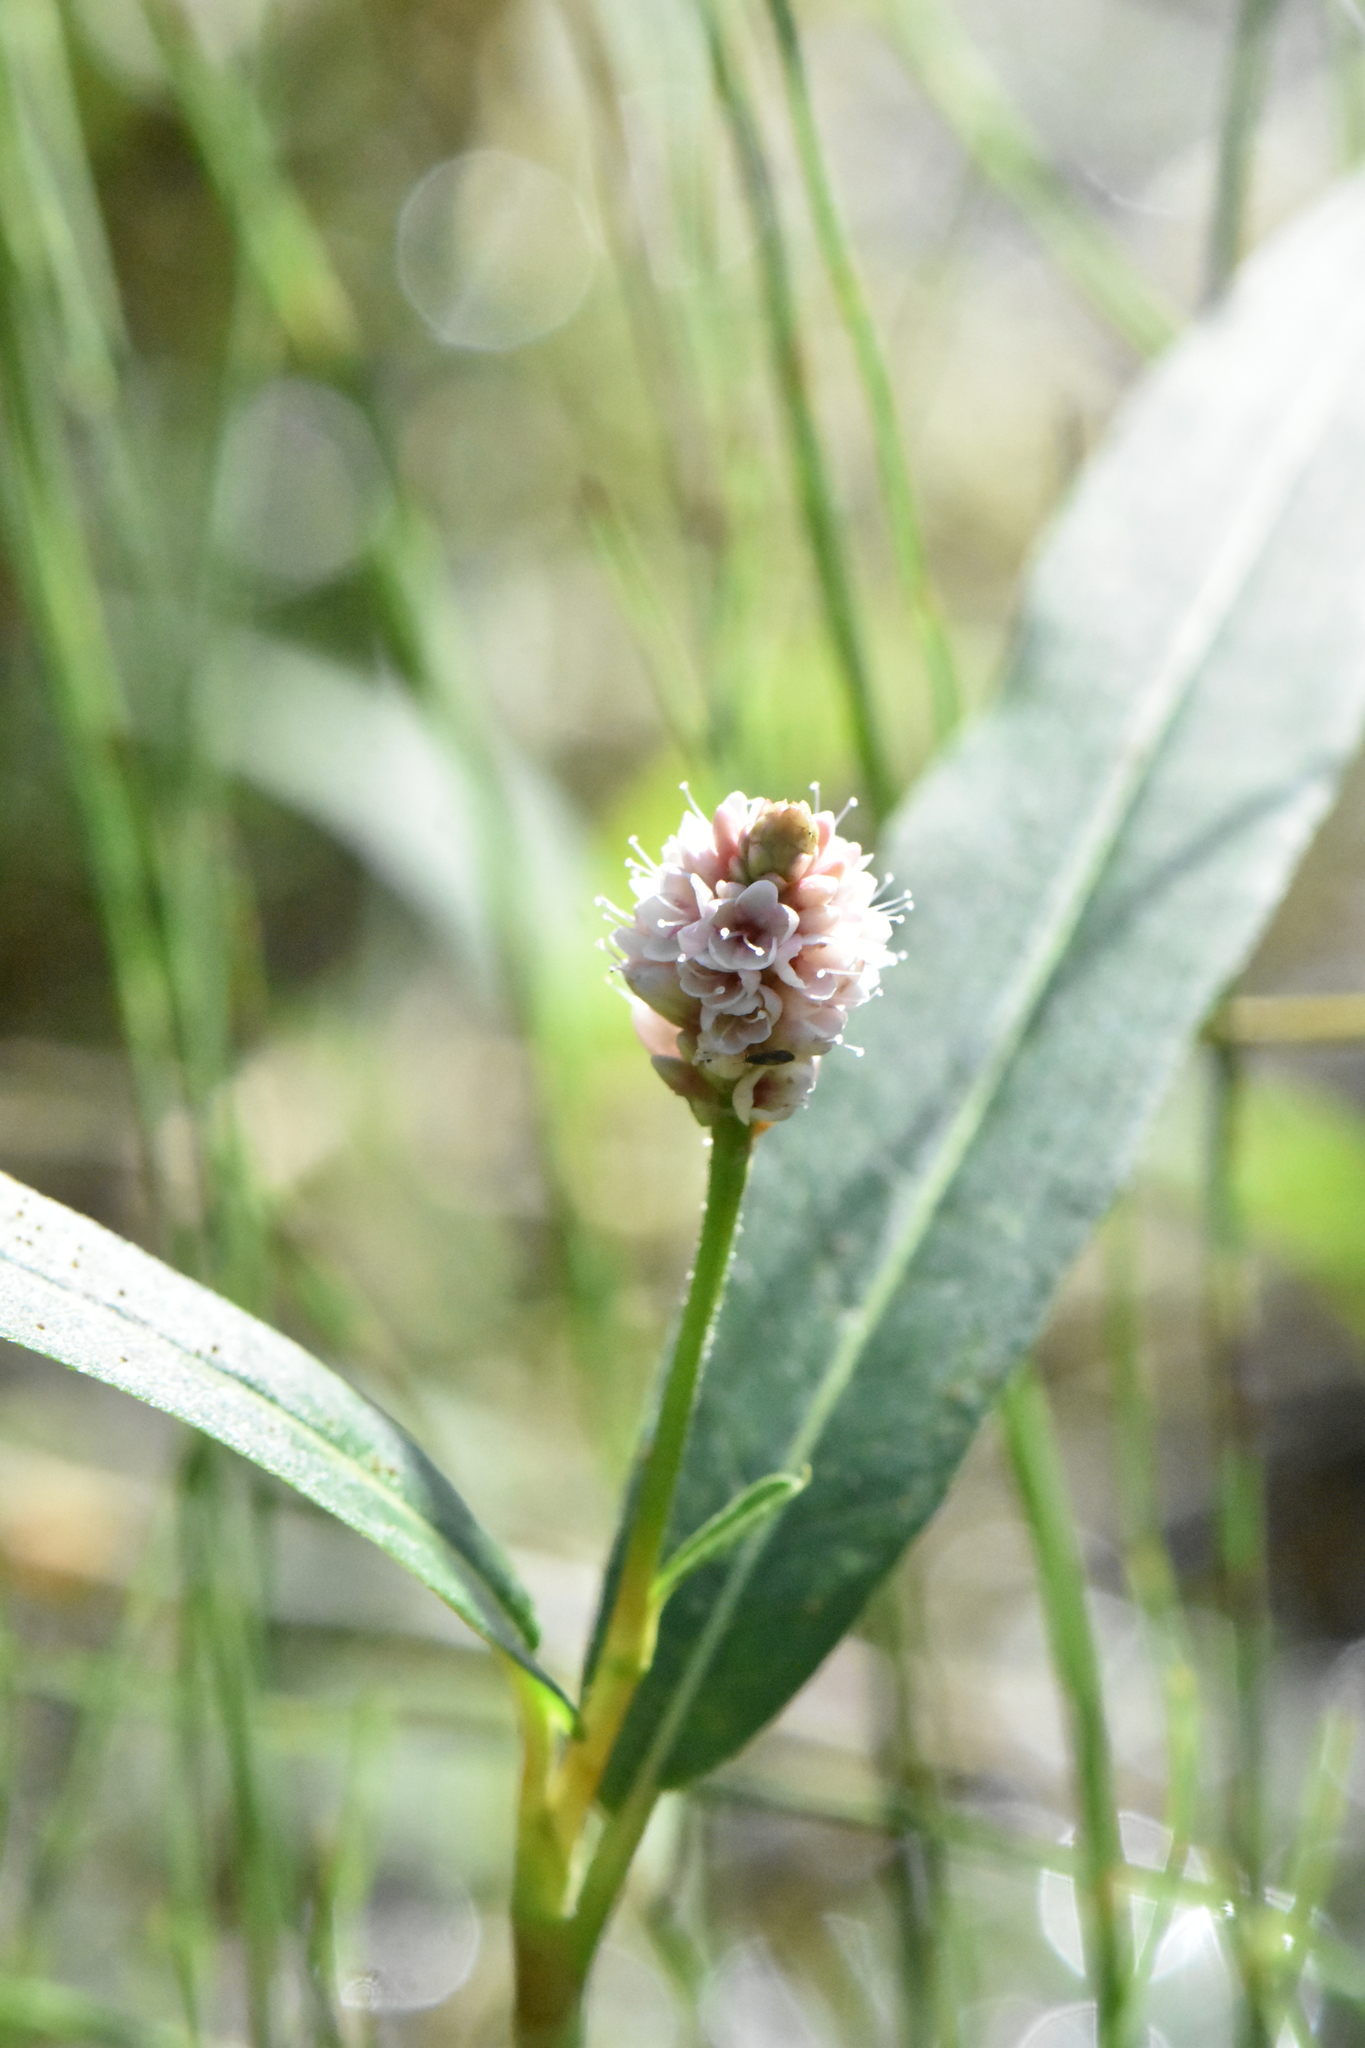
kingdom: Plantae
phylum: Tracheophyta
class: Magnoliopsida
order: Caryophyllales
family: Polygonaceae
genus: Persicaria
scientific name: Persicaria amphibia
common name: Amphibious bistort
